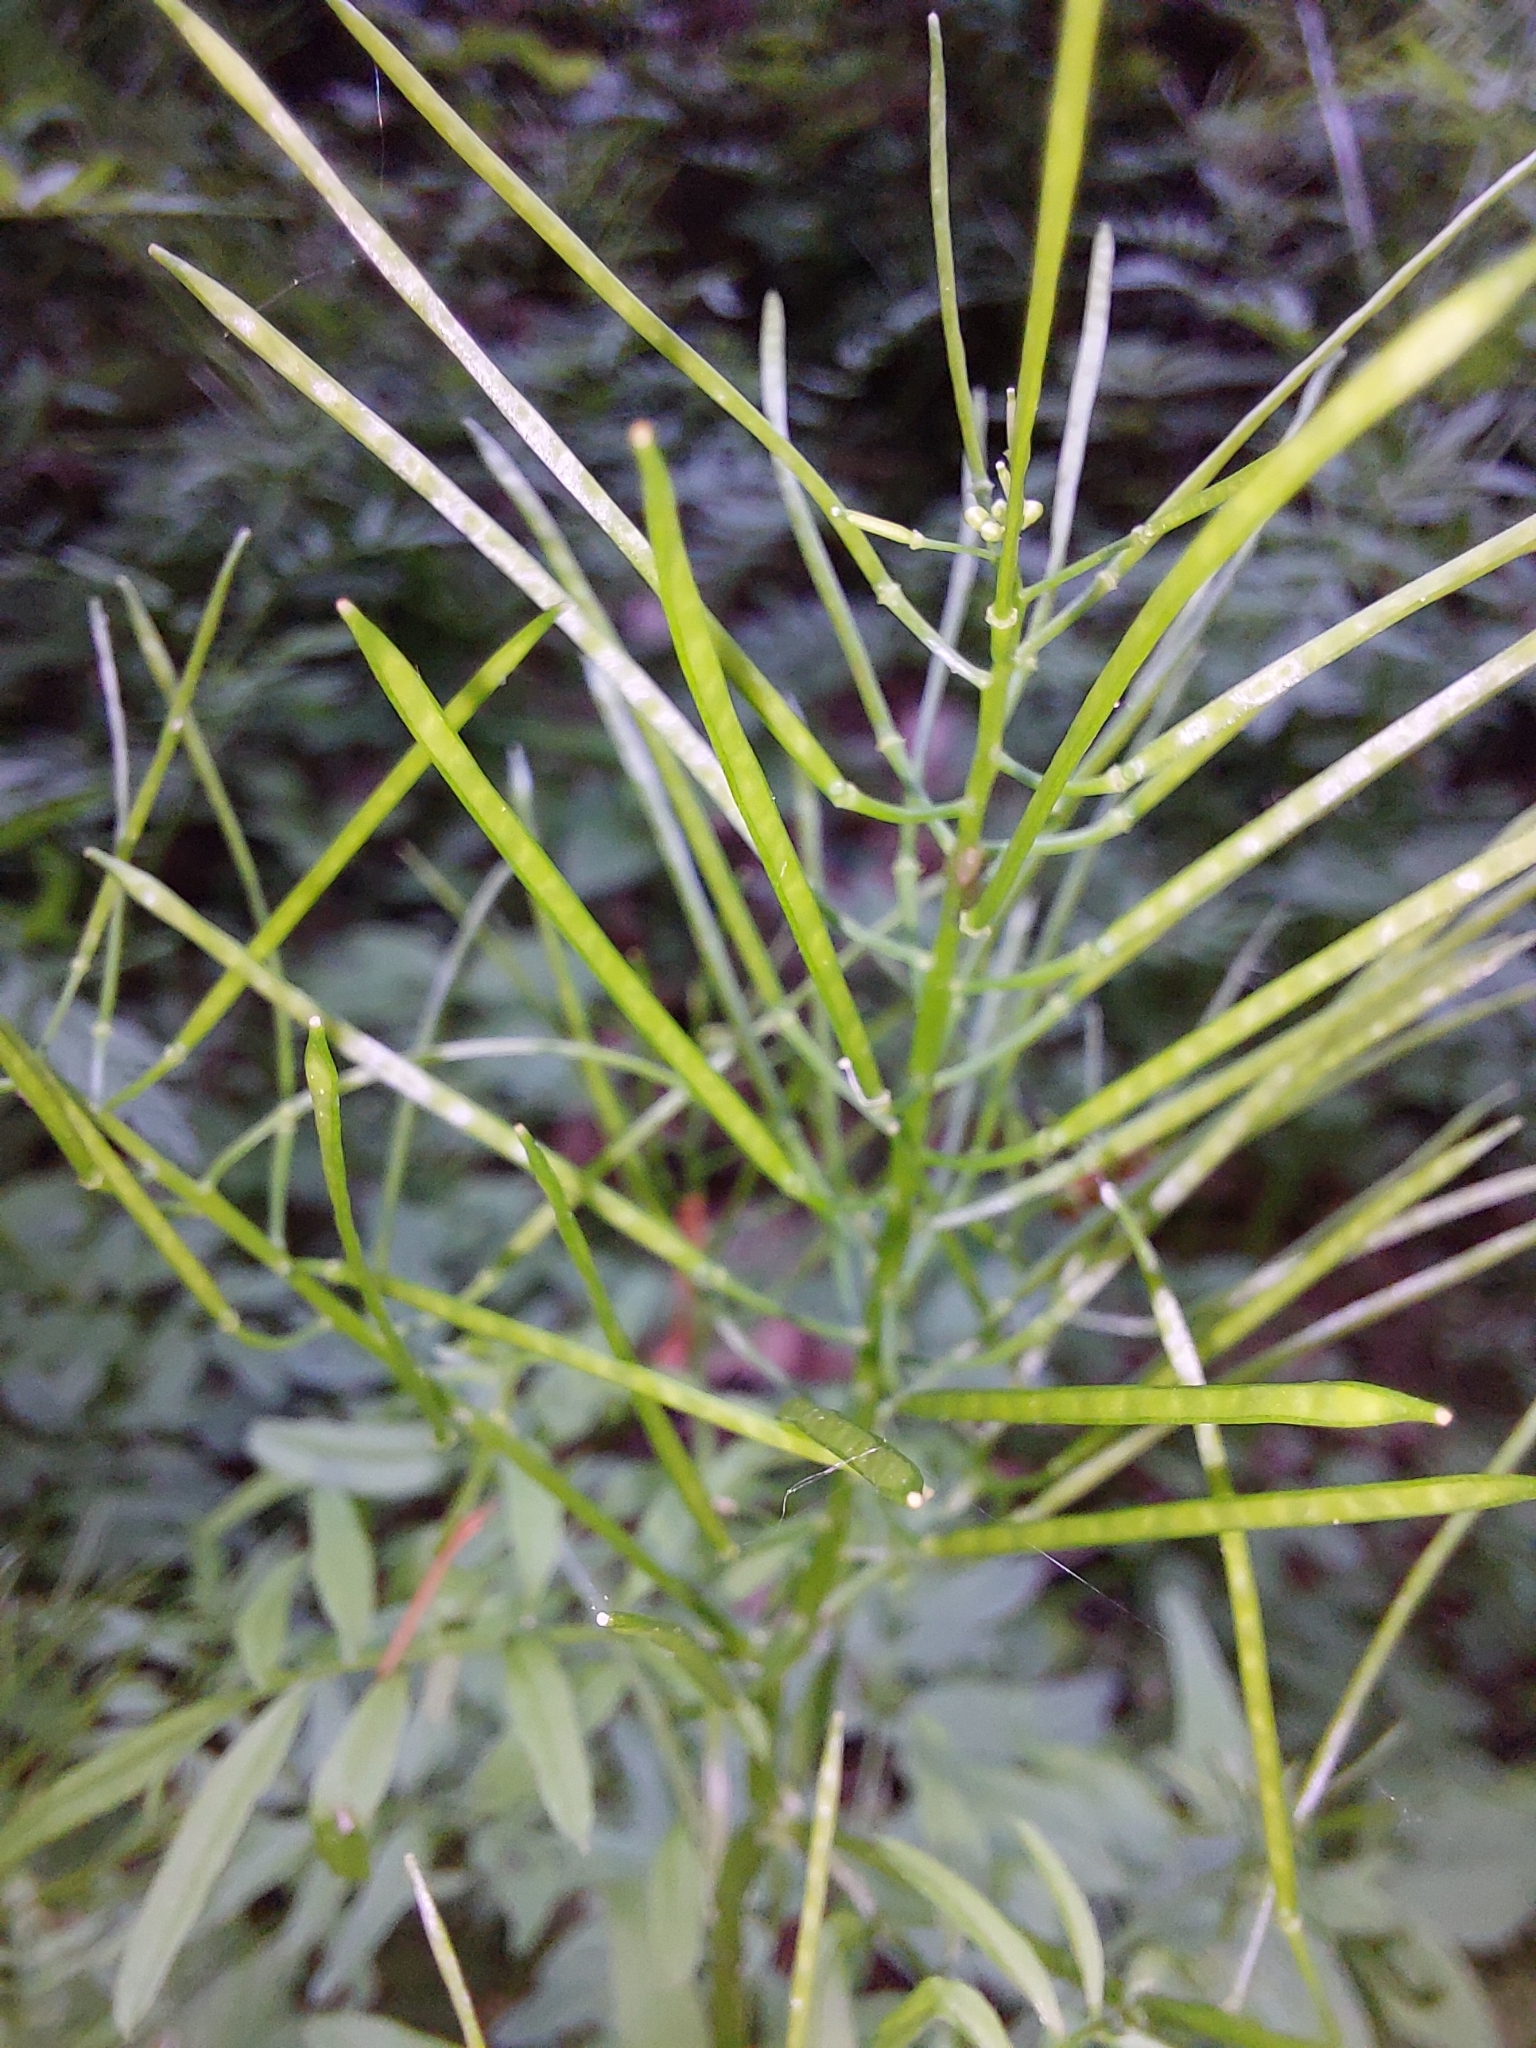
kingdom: Plantae
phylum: Tracheophyta
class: Magnoliopsida
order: Brassicales
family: Brassicaceae
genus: Cardamine
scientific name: Cardamine impatiens
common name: Narrow-leaved bitter-cress
